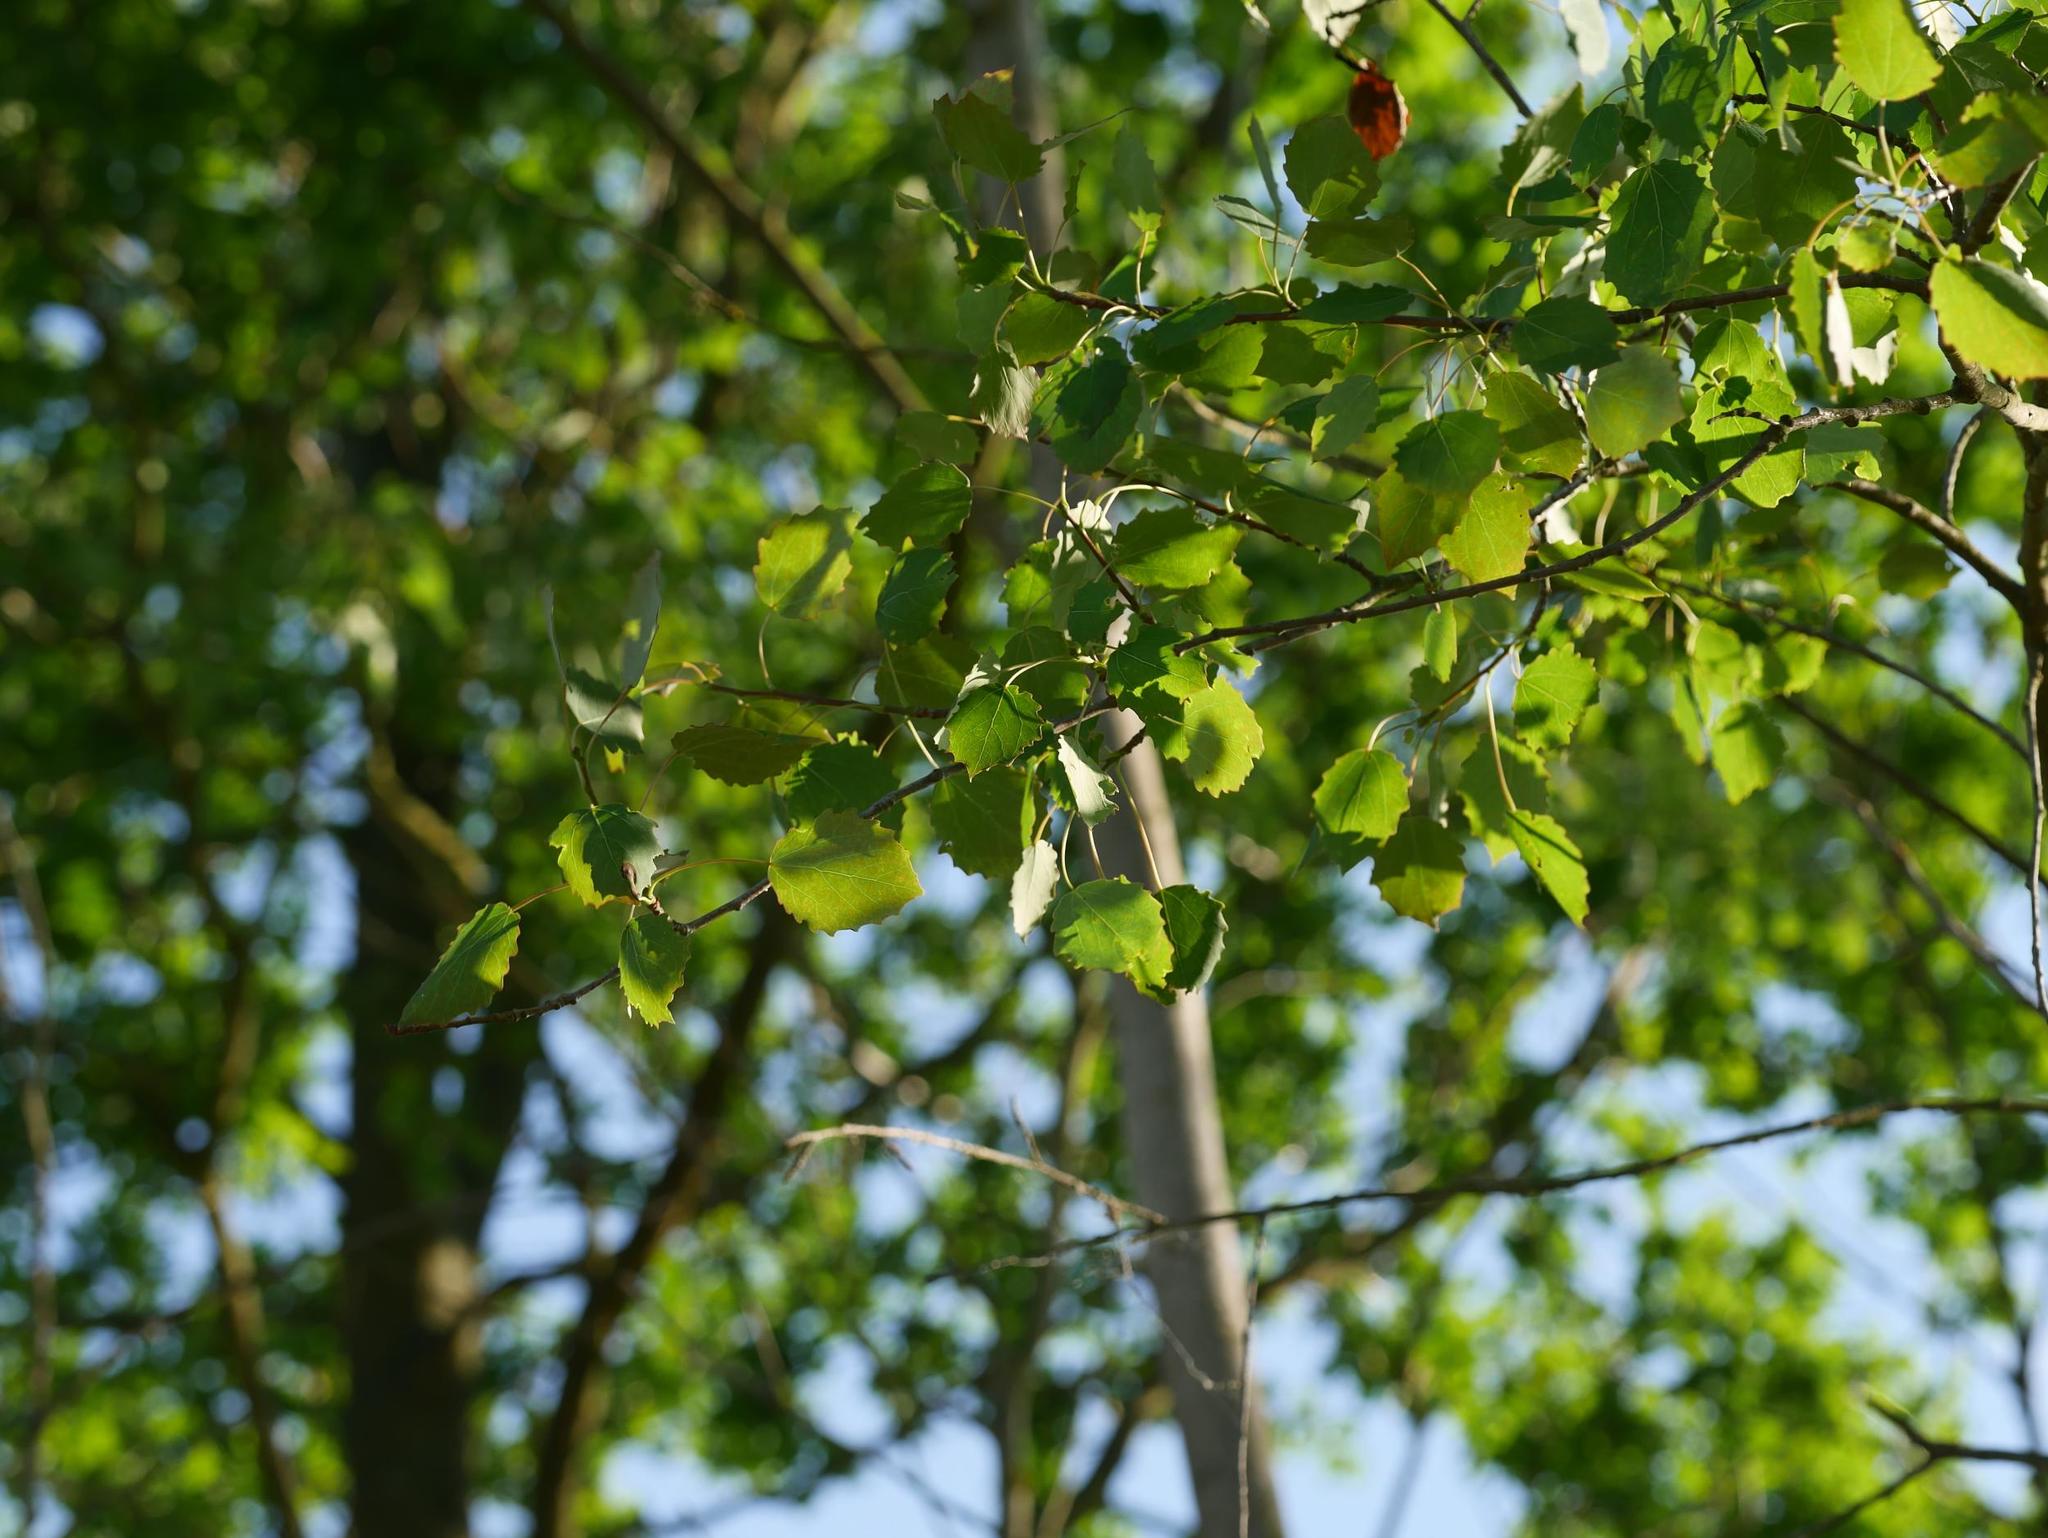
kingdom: Plantae
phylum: Tracheophyta
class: Magnoliopsida
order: Malpighiales
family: Salicaceae
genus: Populus
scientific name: Populus tremula
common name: European aspen
